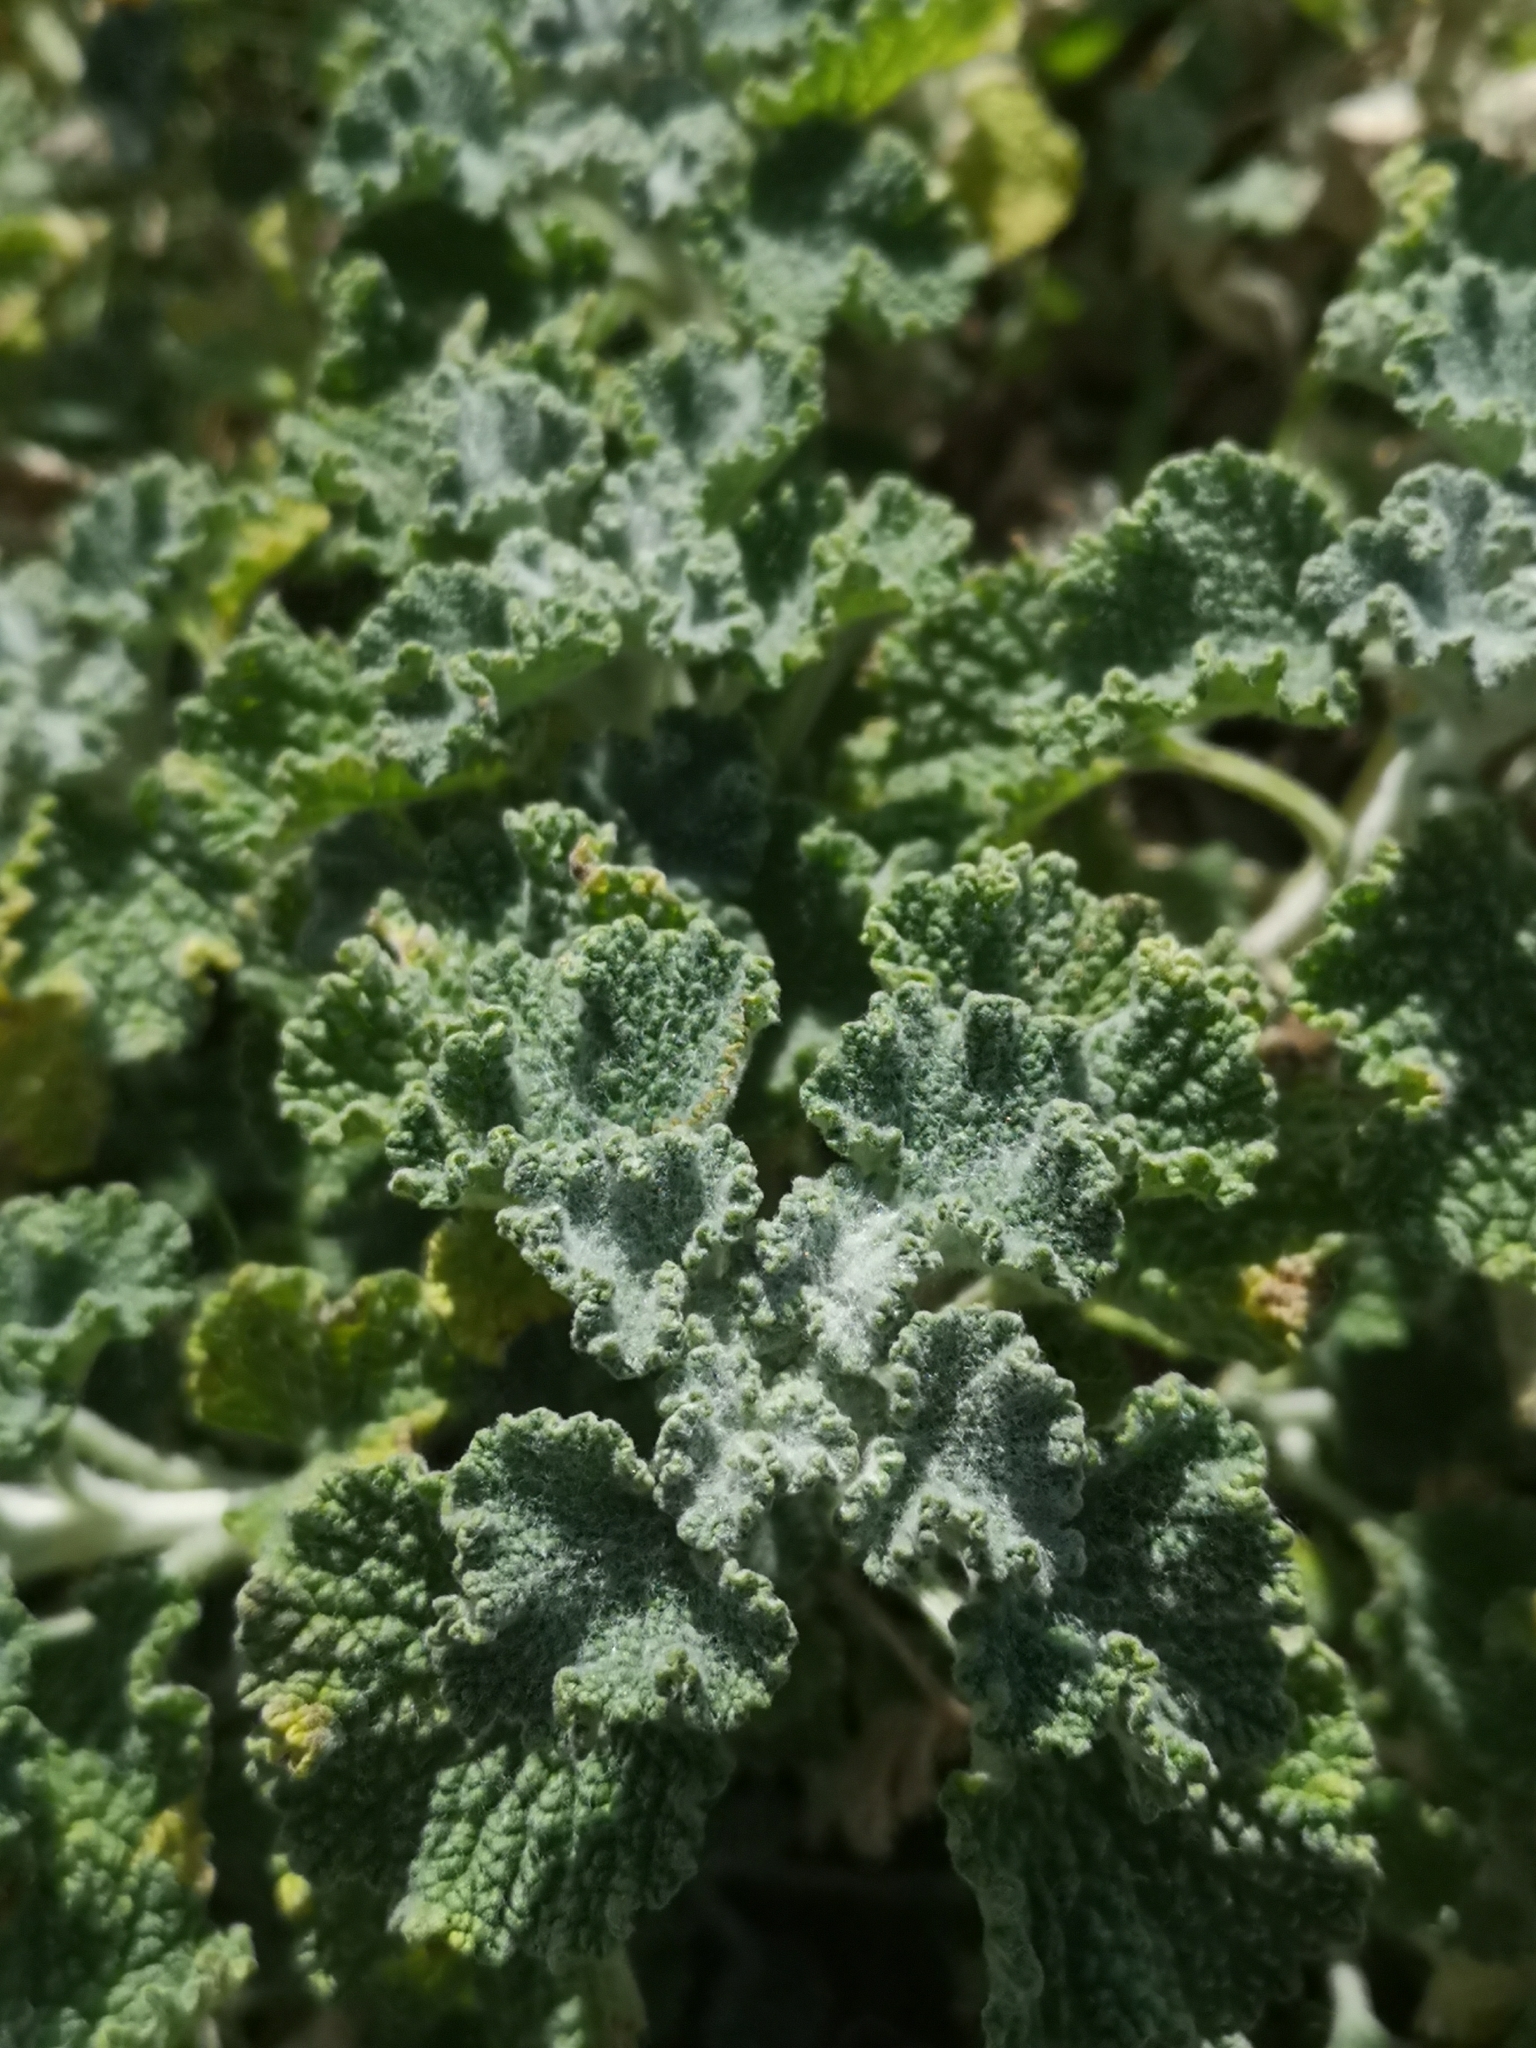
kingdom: Plantae
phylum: Tracheophyta
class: Magnoliopsida
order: Lamiales
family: Lamiaceae
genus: Marrubium
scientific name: Marrubium vulgare
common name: Horehound
